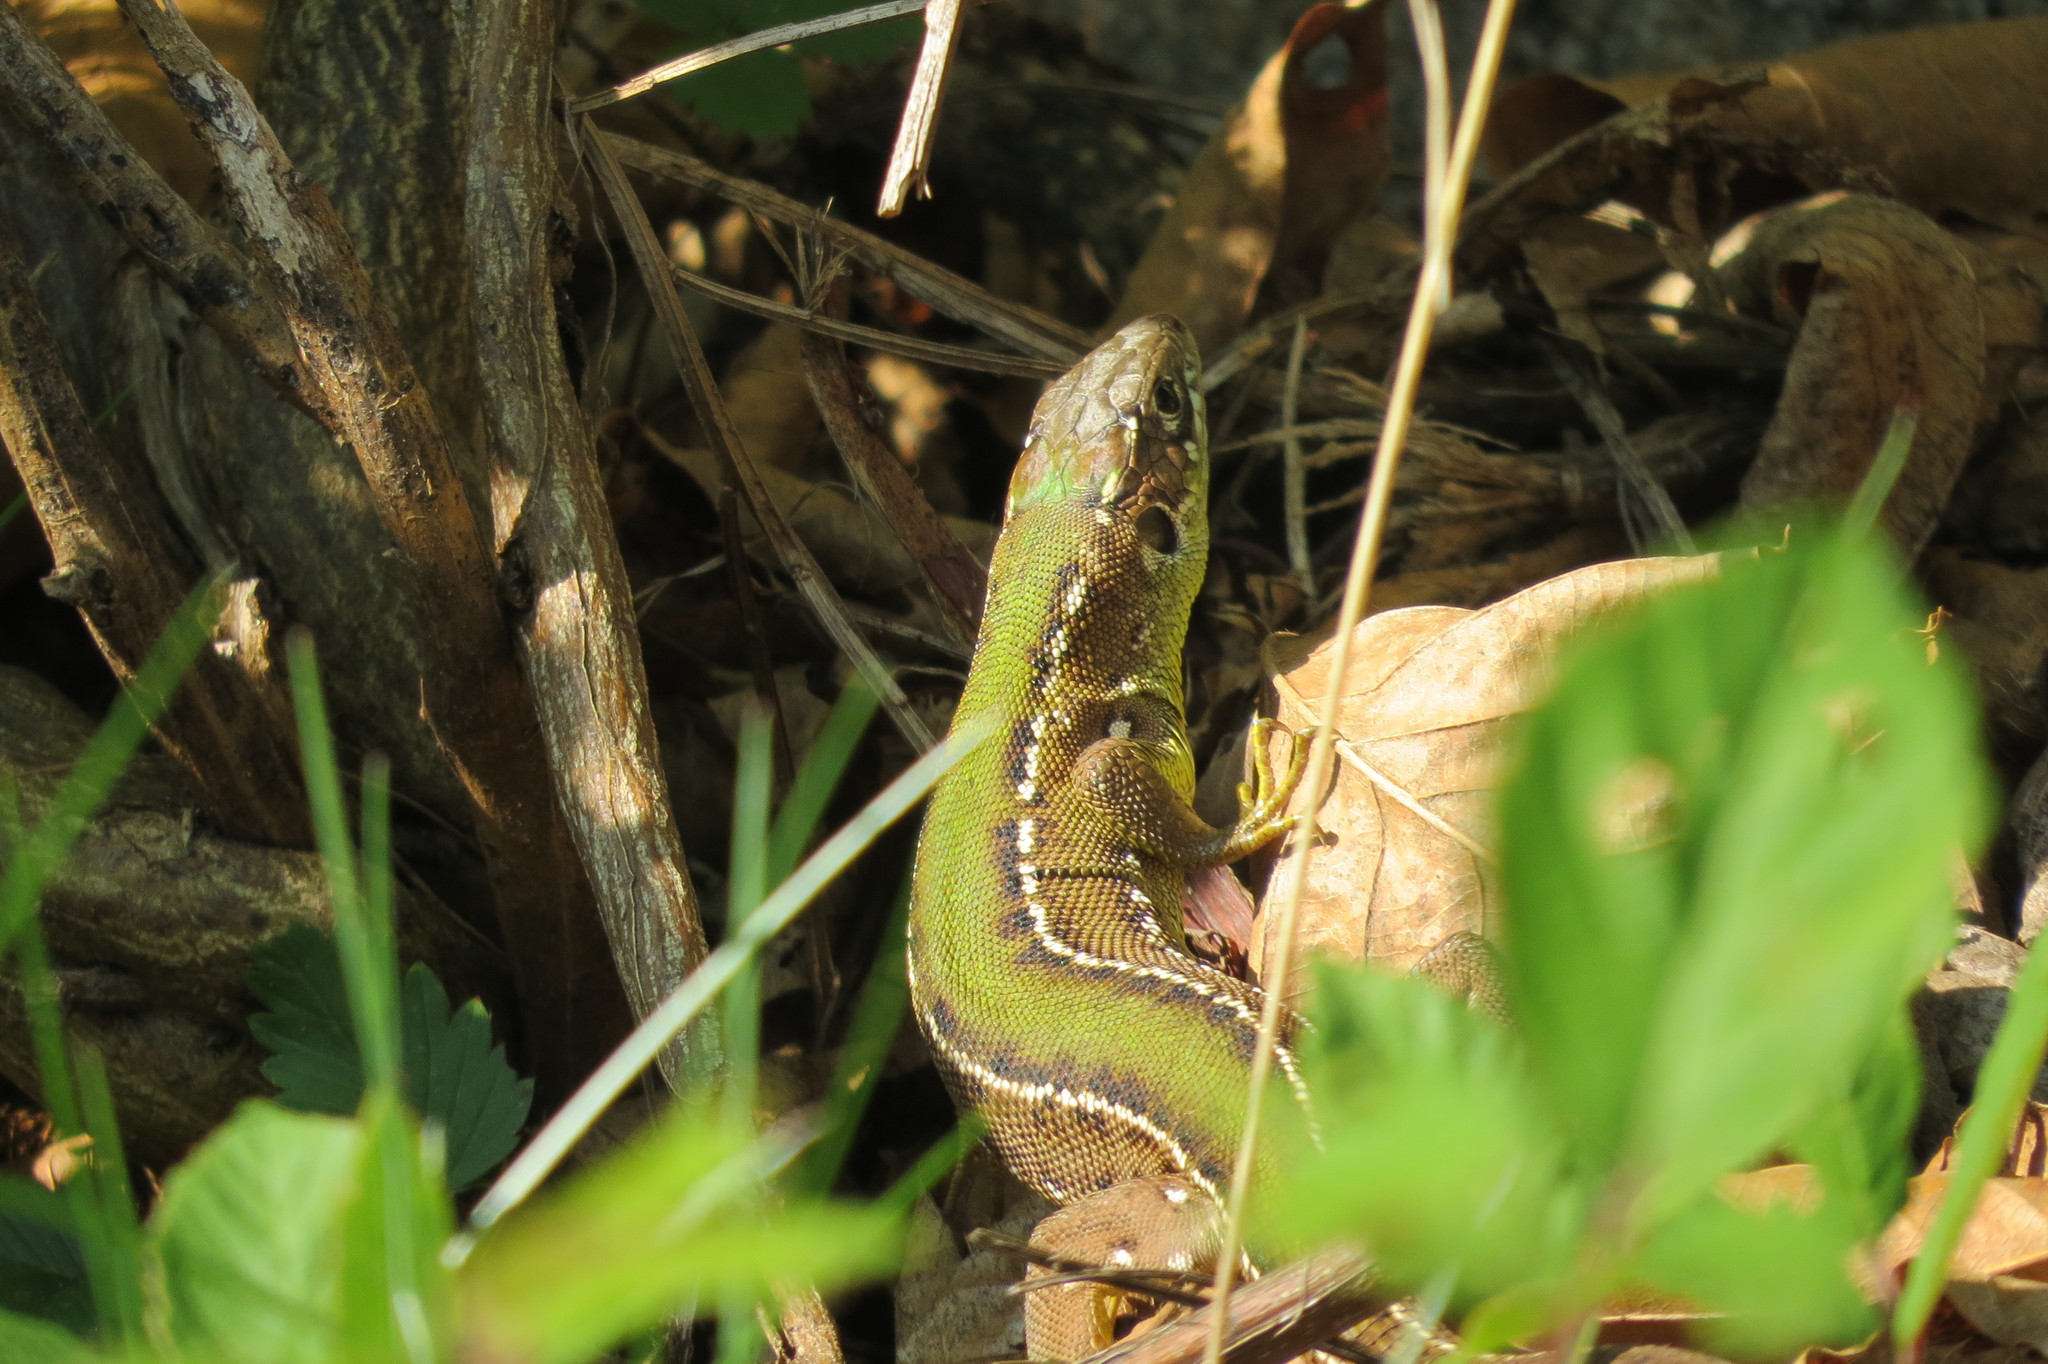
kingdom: Animalia
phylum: Chordata
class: Squamata
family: Lacertidae
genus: Lacerta
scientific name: Lacerta bilineata
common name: Western green lizard
